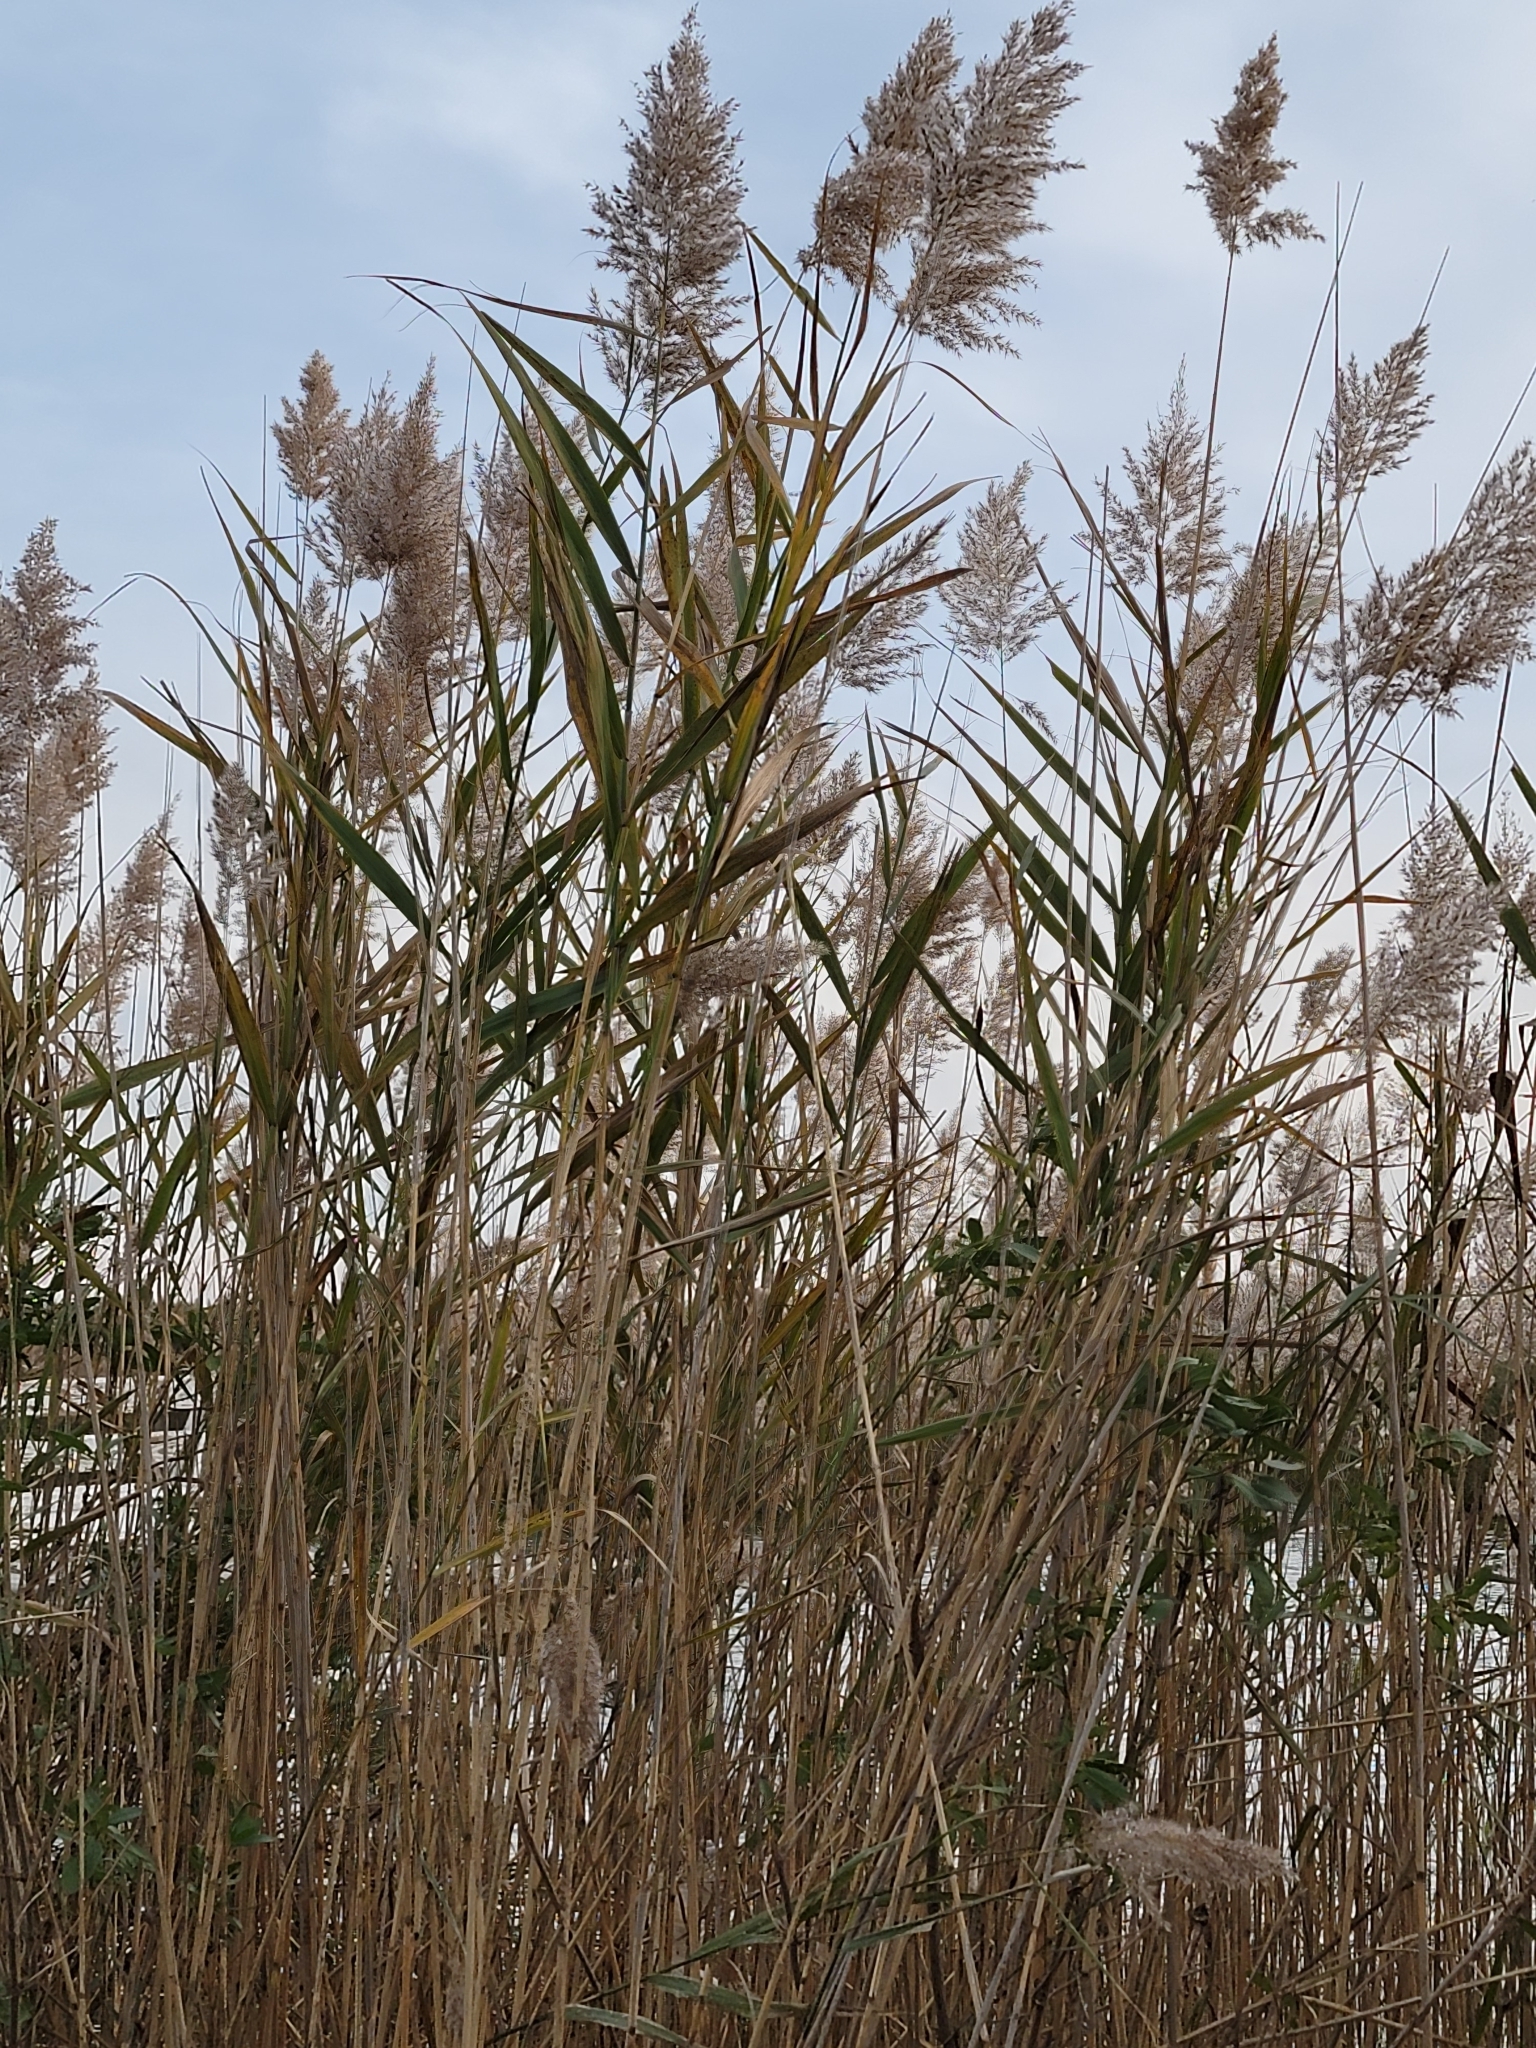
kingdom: Plantae
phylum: Tracheophyta
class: Liliopsida
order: Poales
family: Poaceae
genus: Phragmites
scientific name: Phragmites australis
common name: Common reed
